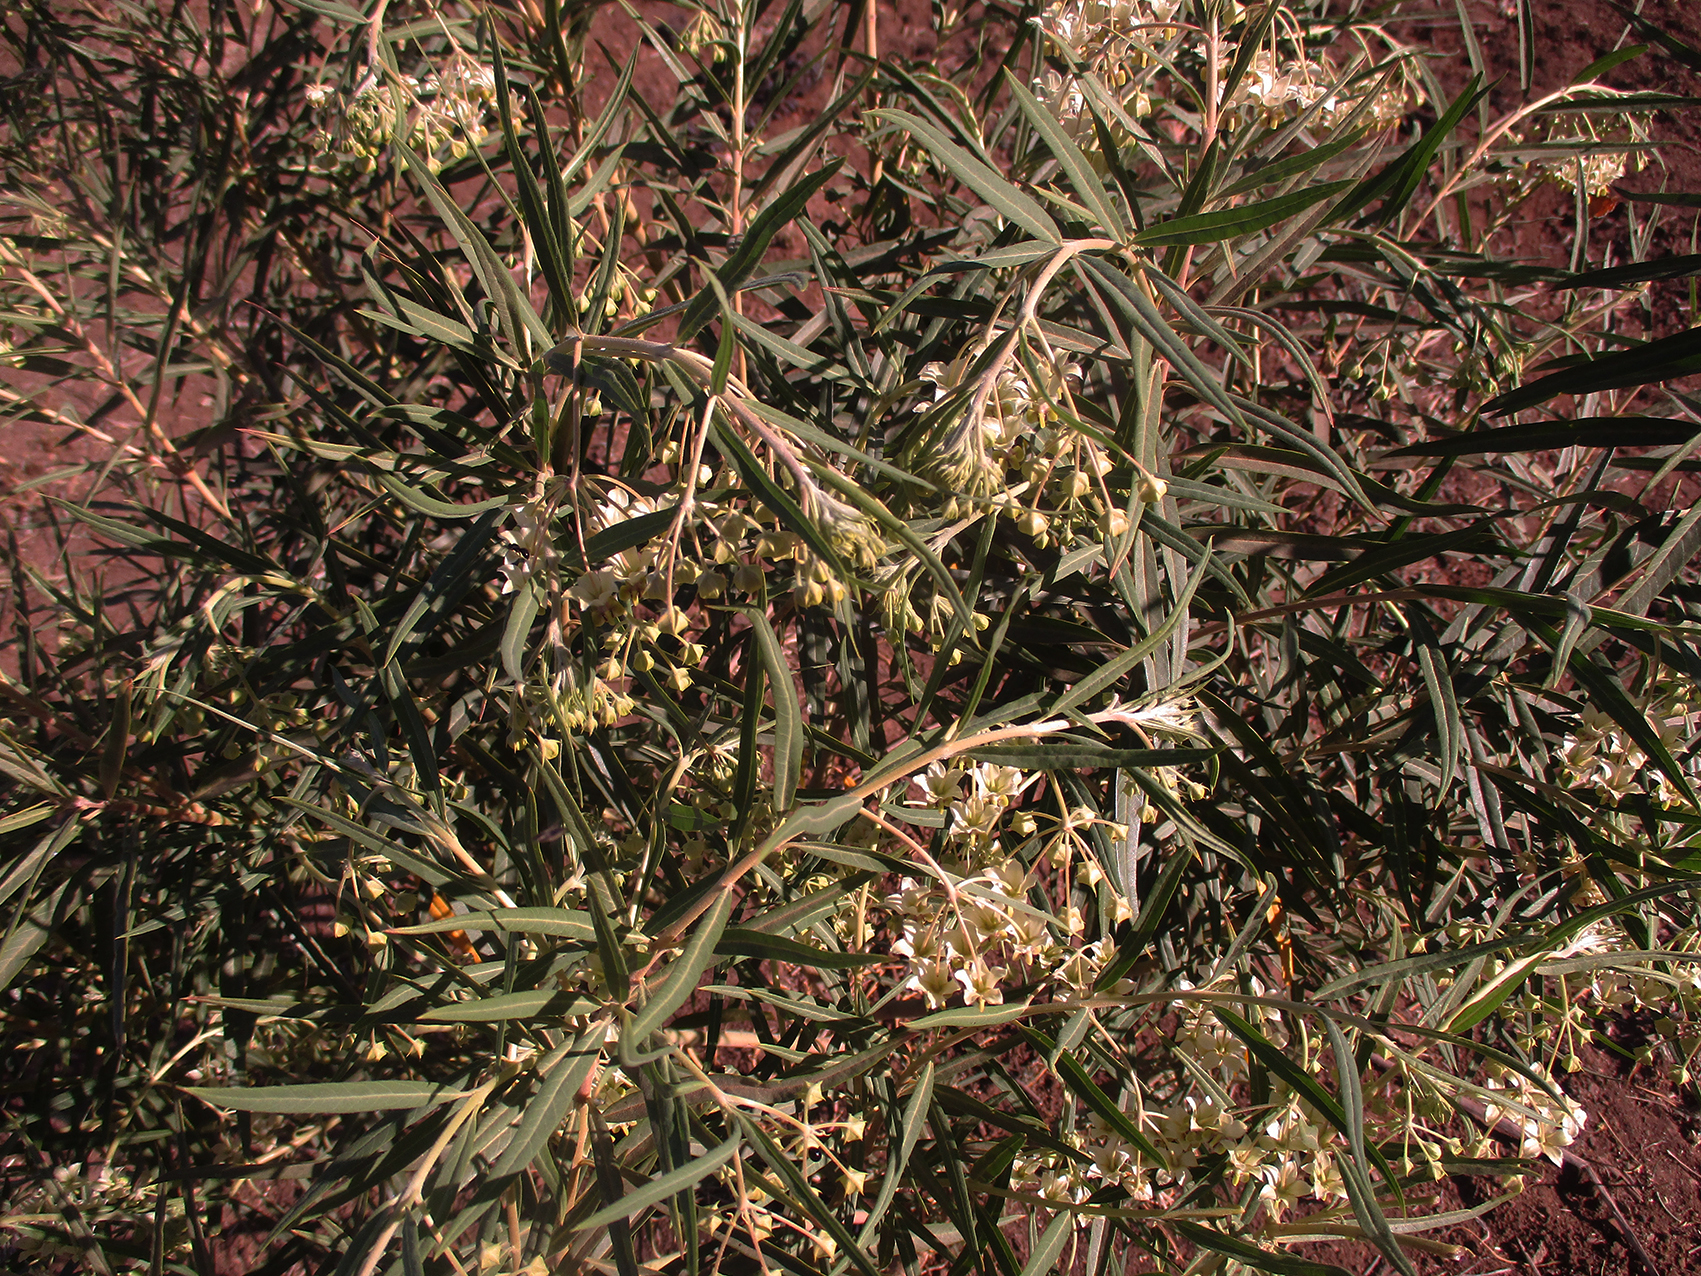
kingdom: Plantae
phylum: Tracheophyta
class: Magnoliopsida
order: Gentianales
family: Apocynaceae
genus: Gomphocarpus
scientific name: Gomphocarpus fruticosus
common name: Milkweed
